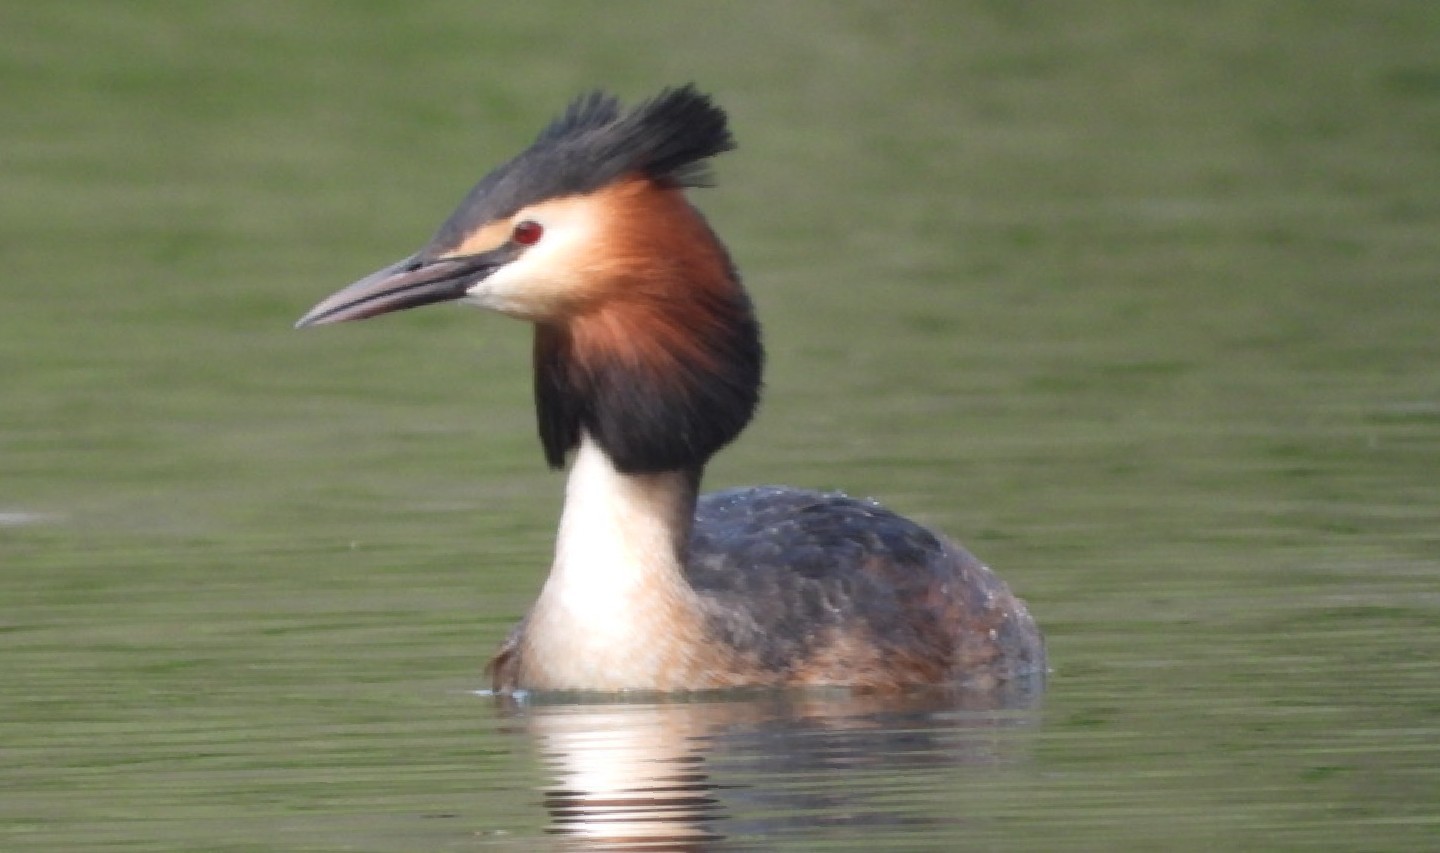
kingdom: Animalia
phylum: Chordata
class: Aves
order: Podicipediformes
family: Podicipedidae
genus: Podiceps
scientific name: Podiceps cristatus
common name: Great crested grebe
